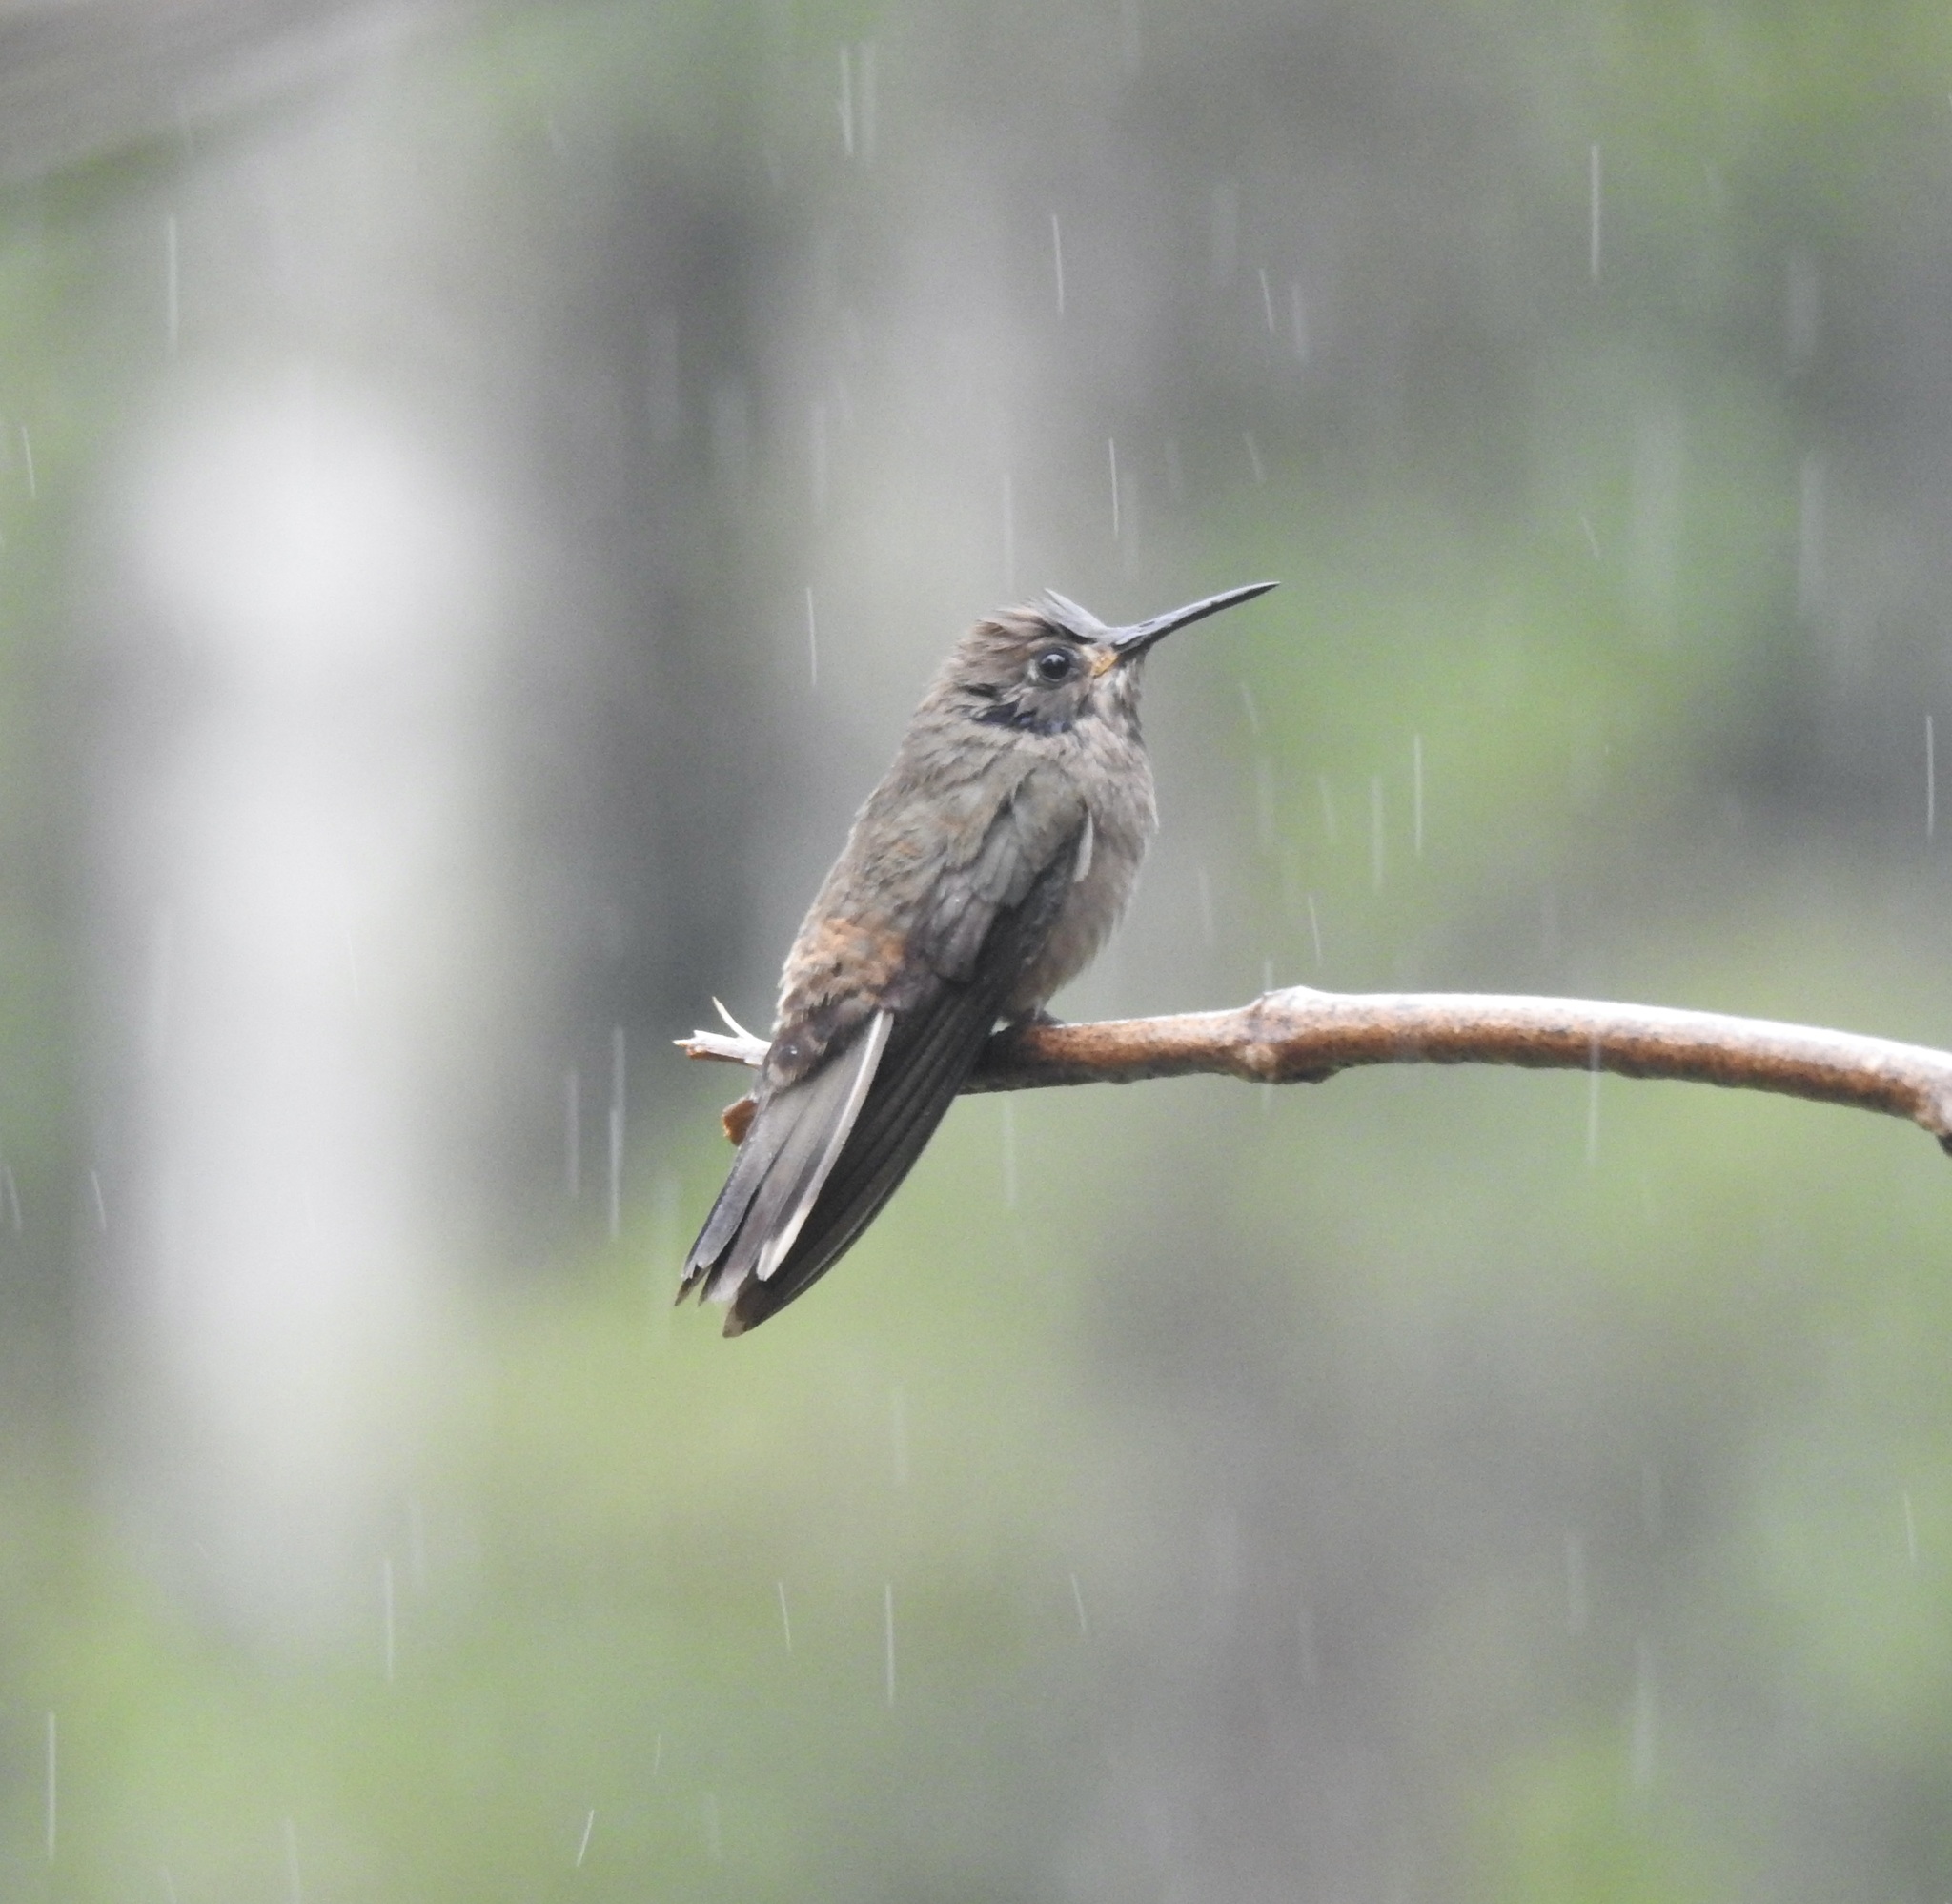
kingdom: Animalia
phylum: Chordata
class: Aves
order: Apodiformes
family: Trochilidae
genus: Colibri
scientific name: Colibri delphinae
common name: Brown violetear
